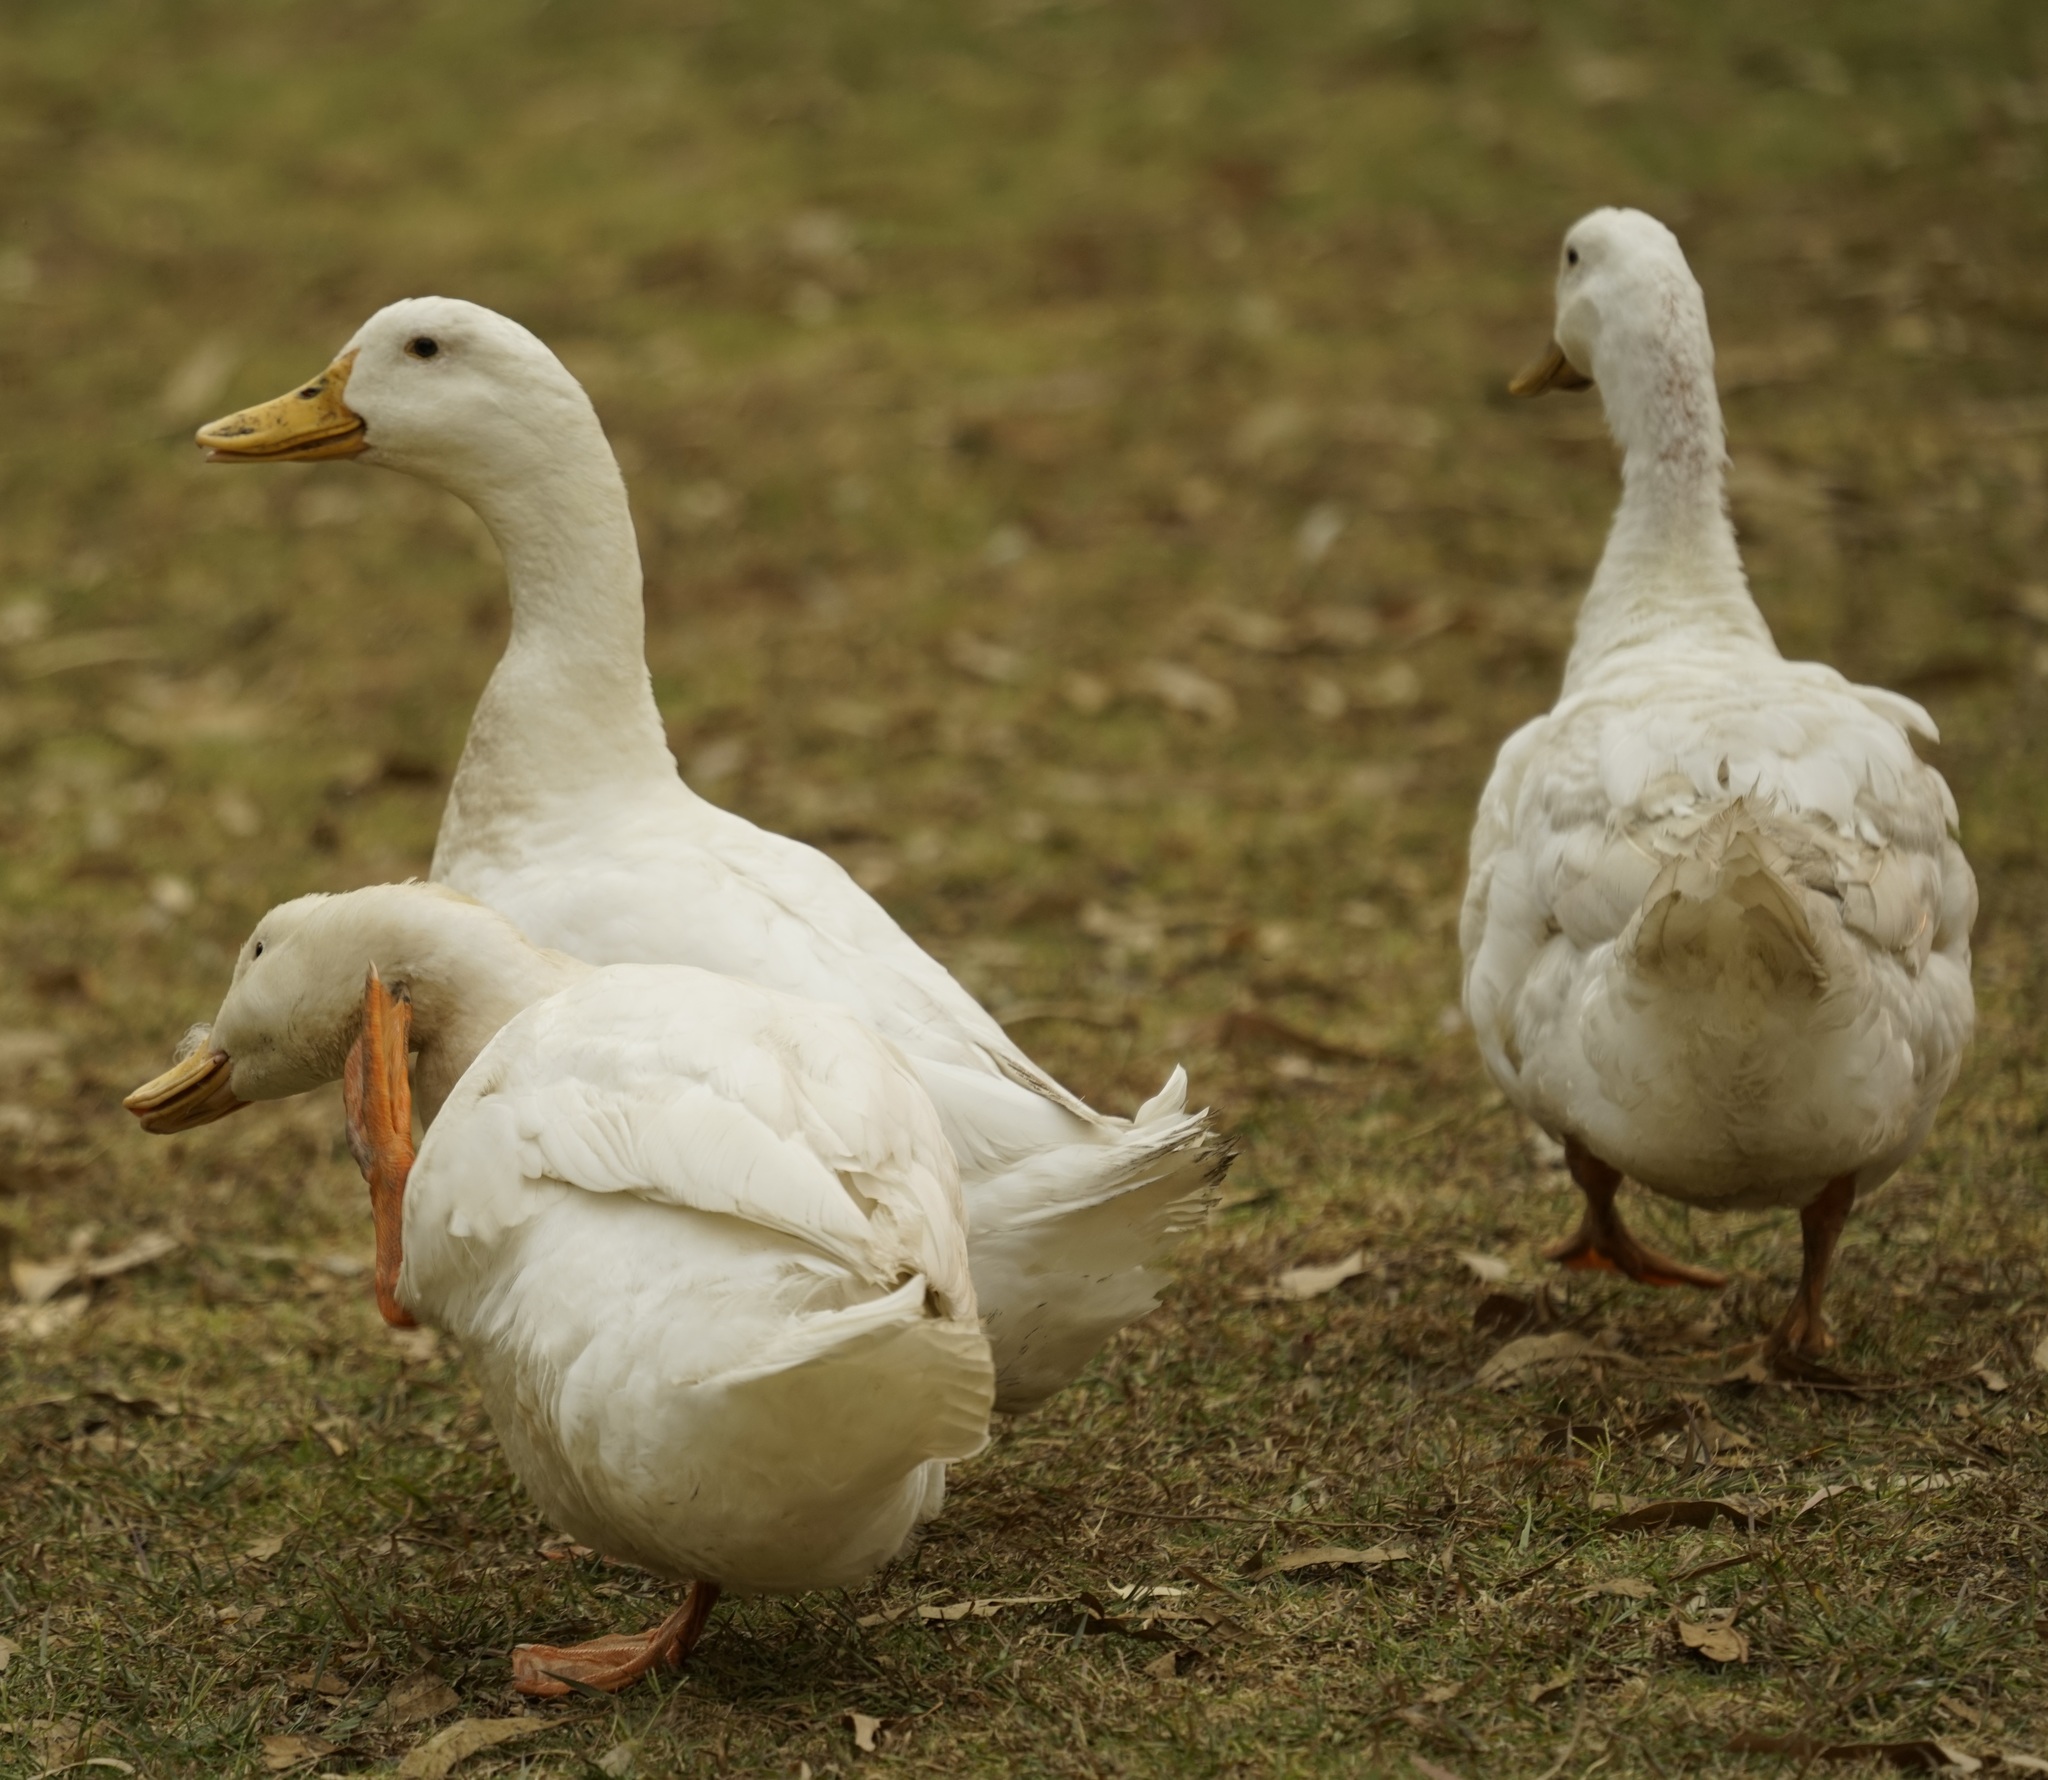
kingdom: Animalia
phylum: Chordata
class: Aves
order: Anseriformes
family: Anatidae
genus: Anas
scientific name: Anas platyrhynchos
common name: Mallard
